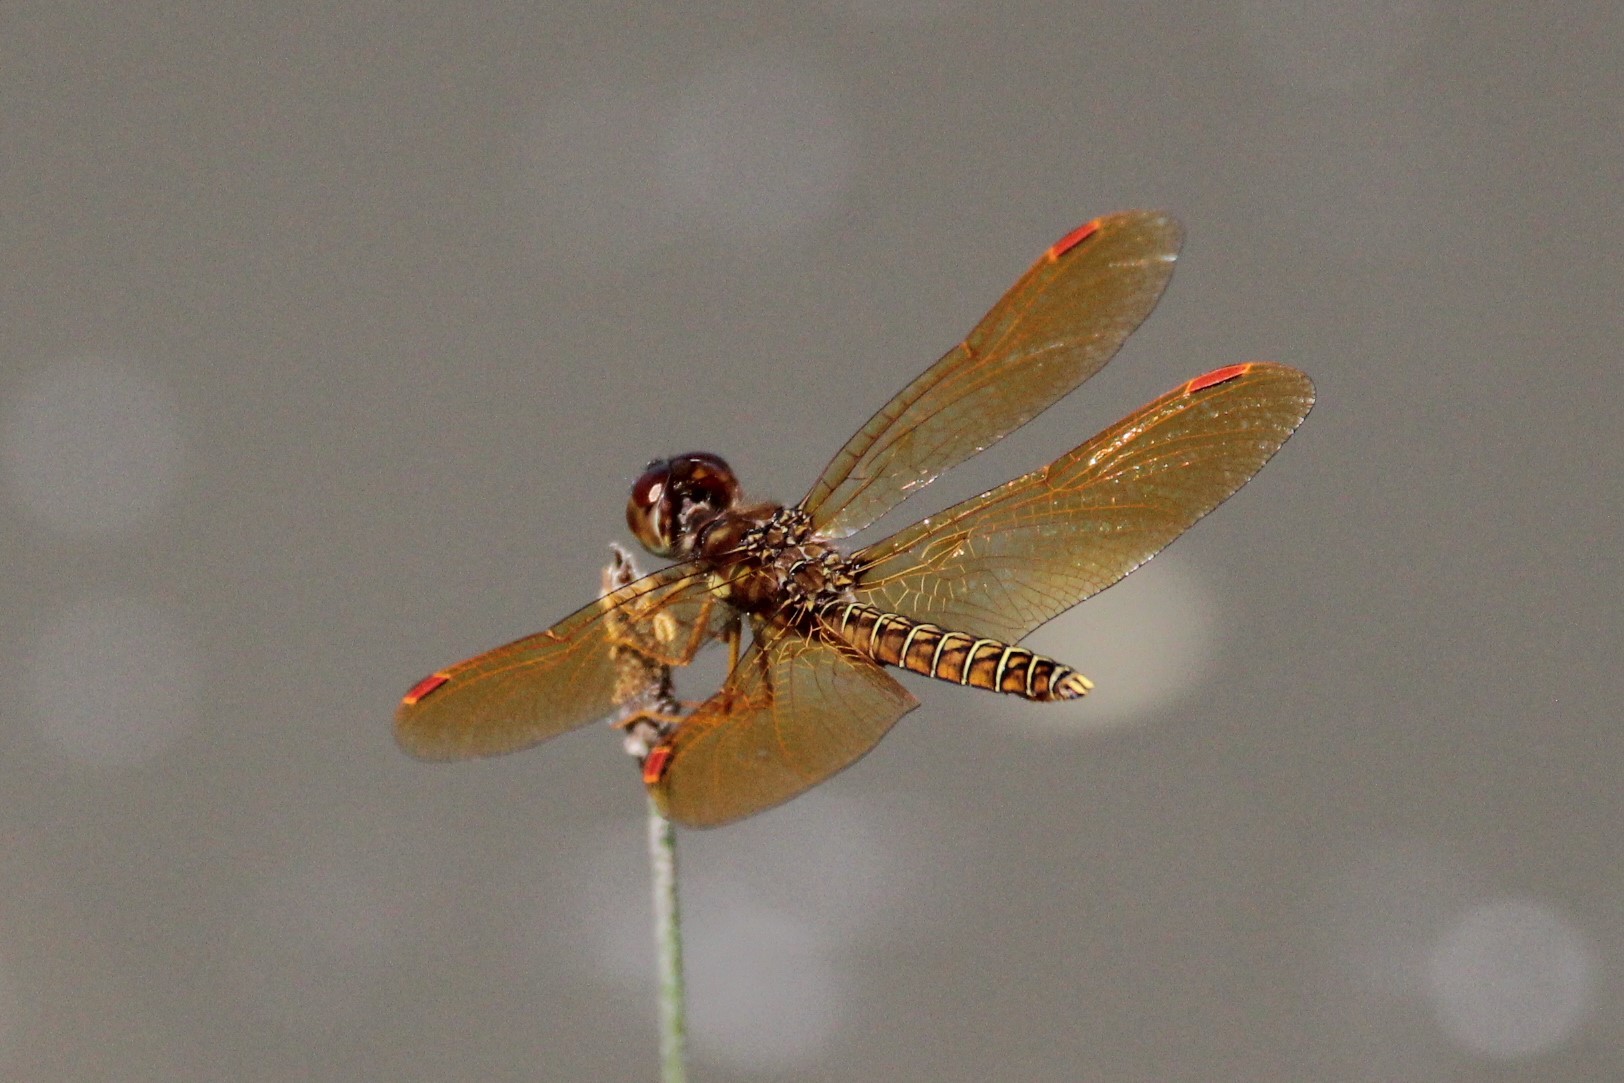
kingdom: Animalia
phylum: Arthropoda
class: Insecta
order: Odonata
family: Libellulidae
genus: Perithemis
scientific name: Perithemis tenera
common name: Eastern amberwing
